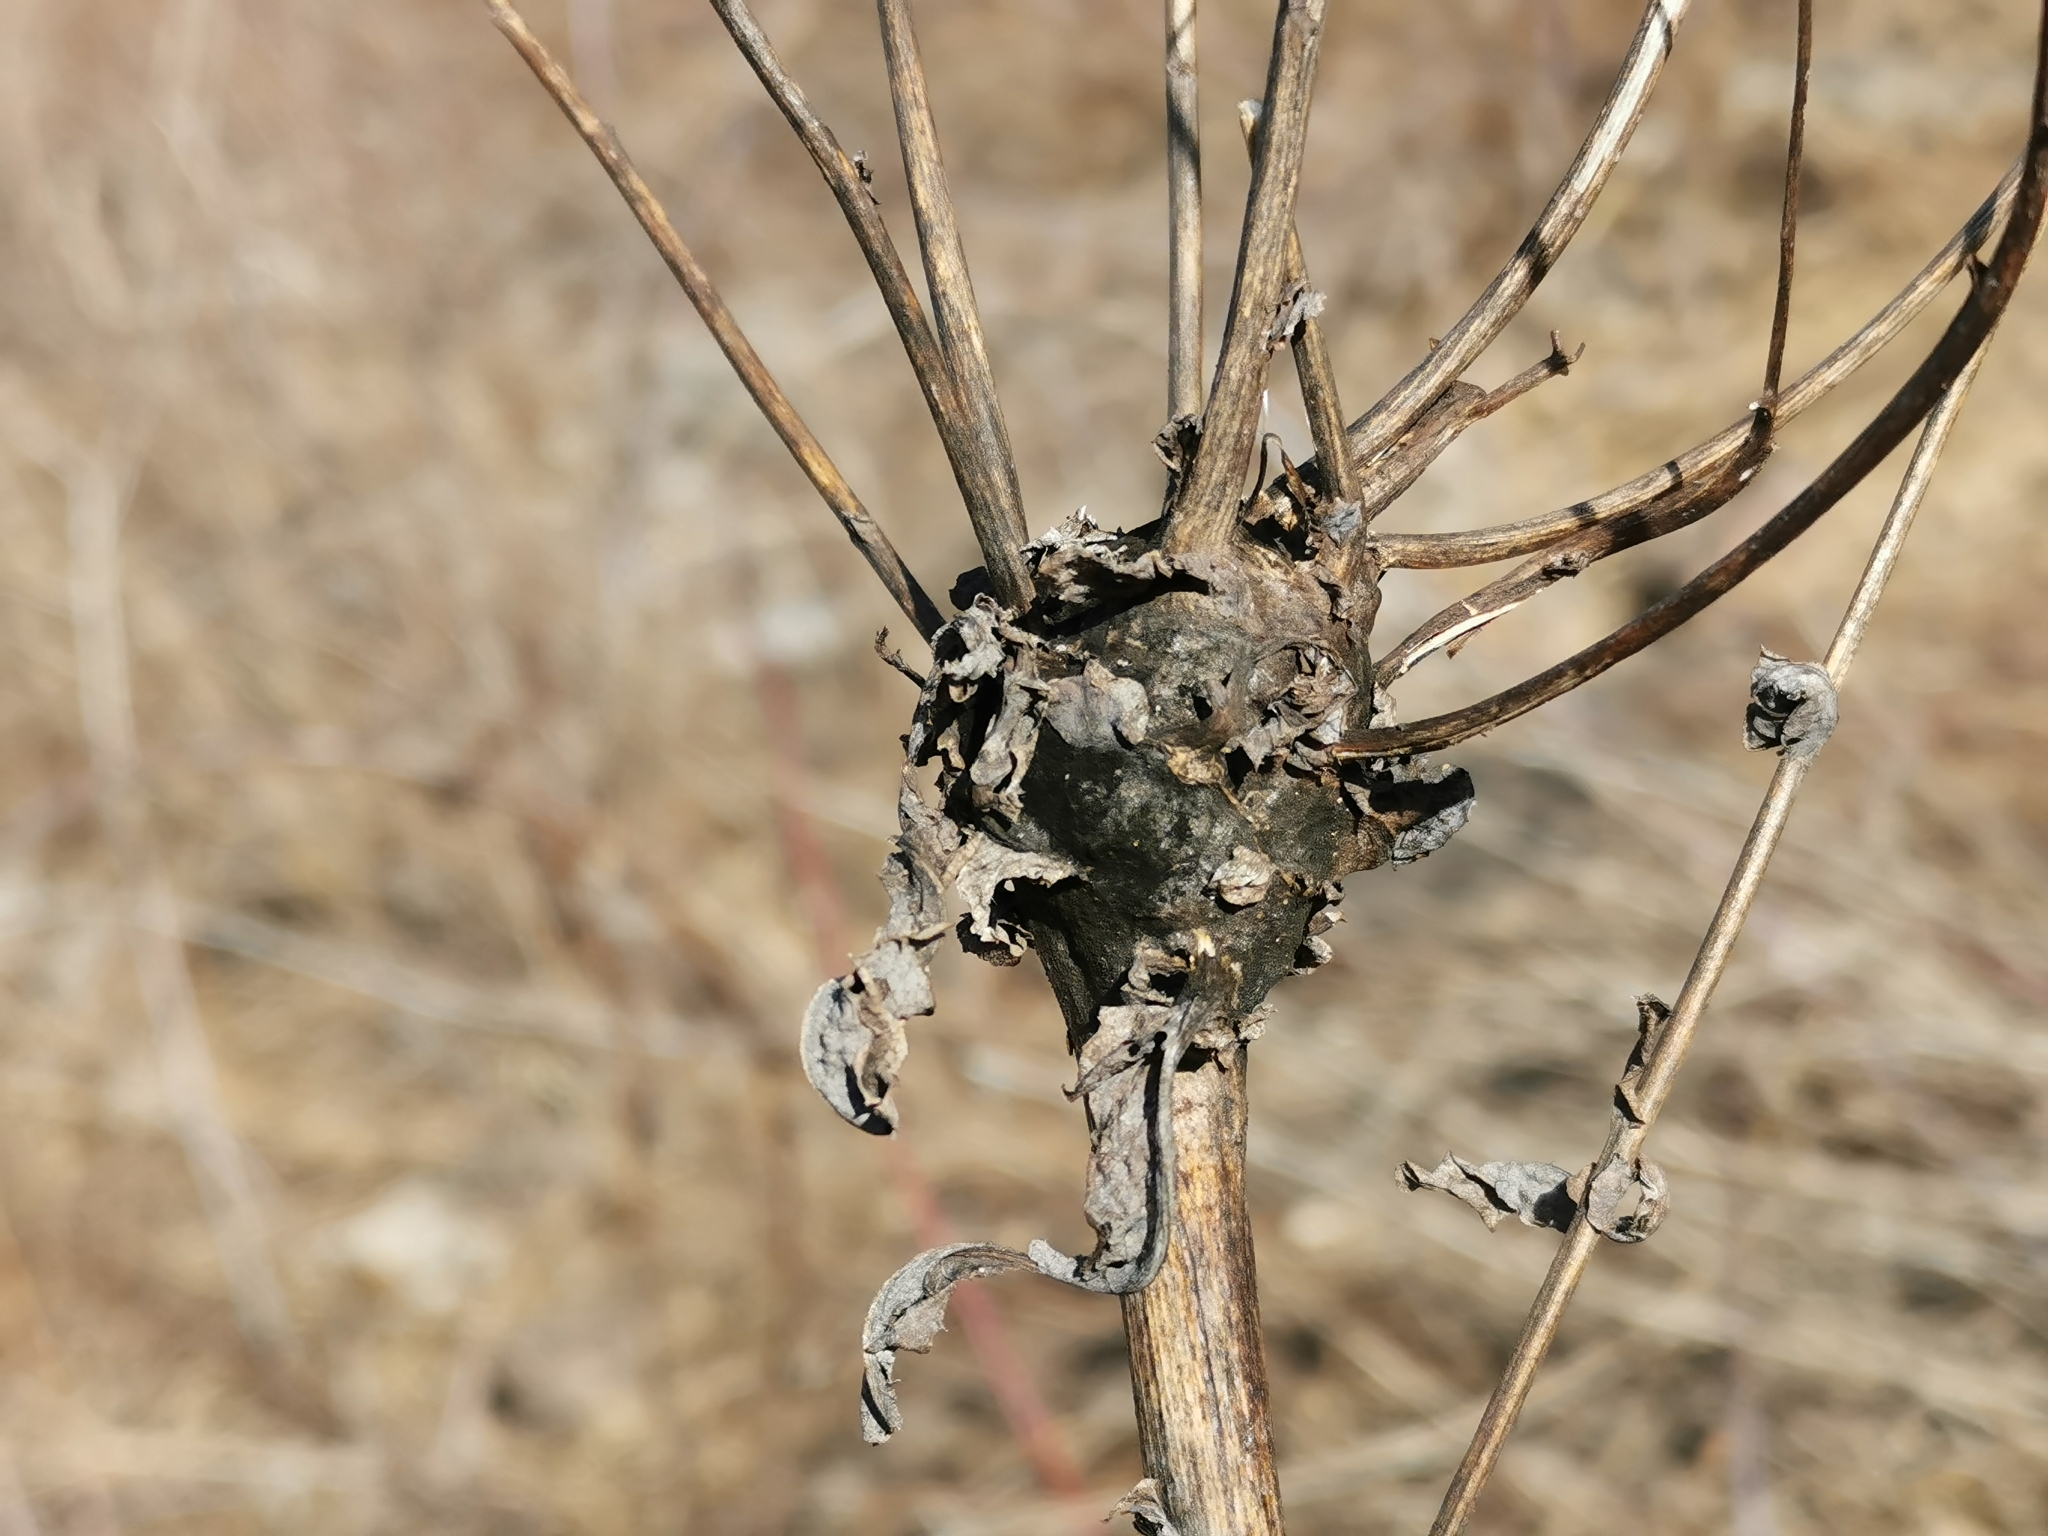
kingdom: Animalia
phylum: Arthropoda
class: Insecta
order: Hymenoptera
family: Cynipidae
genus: Aulacidea
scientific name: Aulacidea
